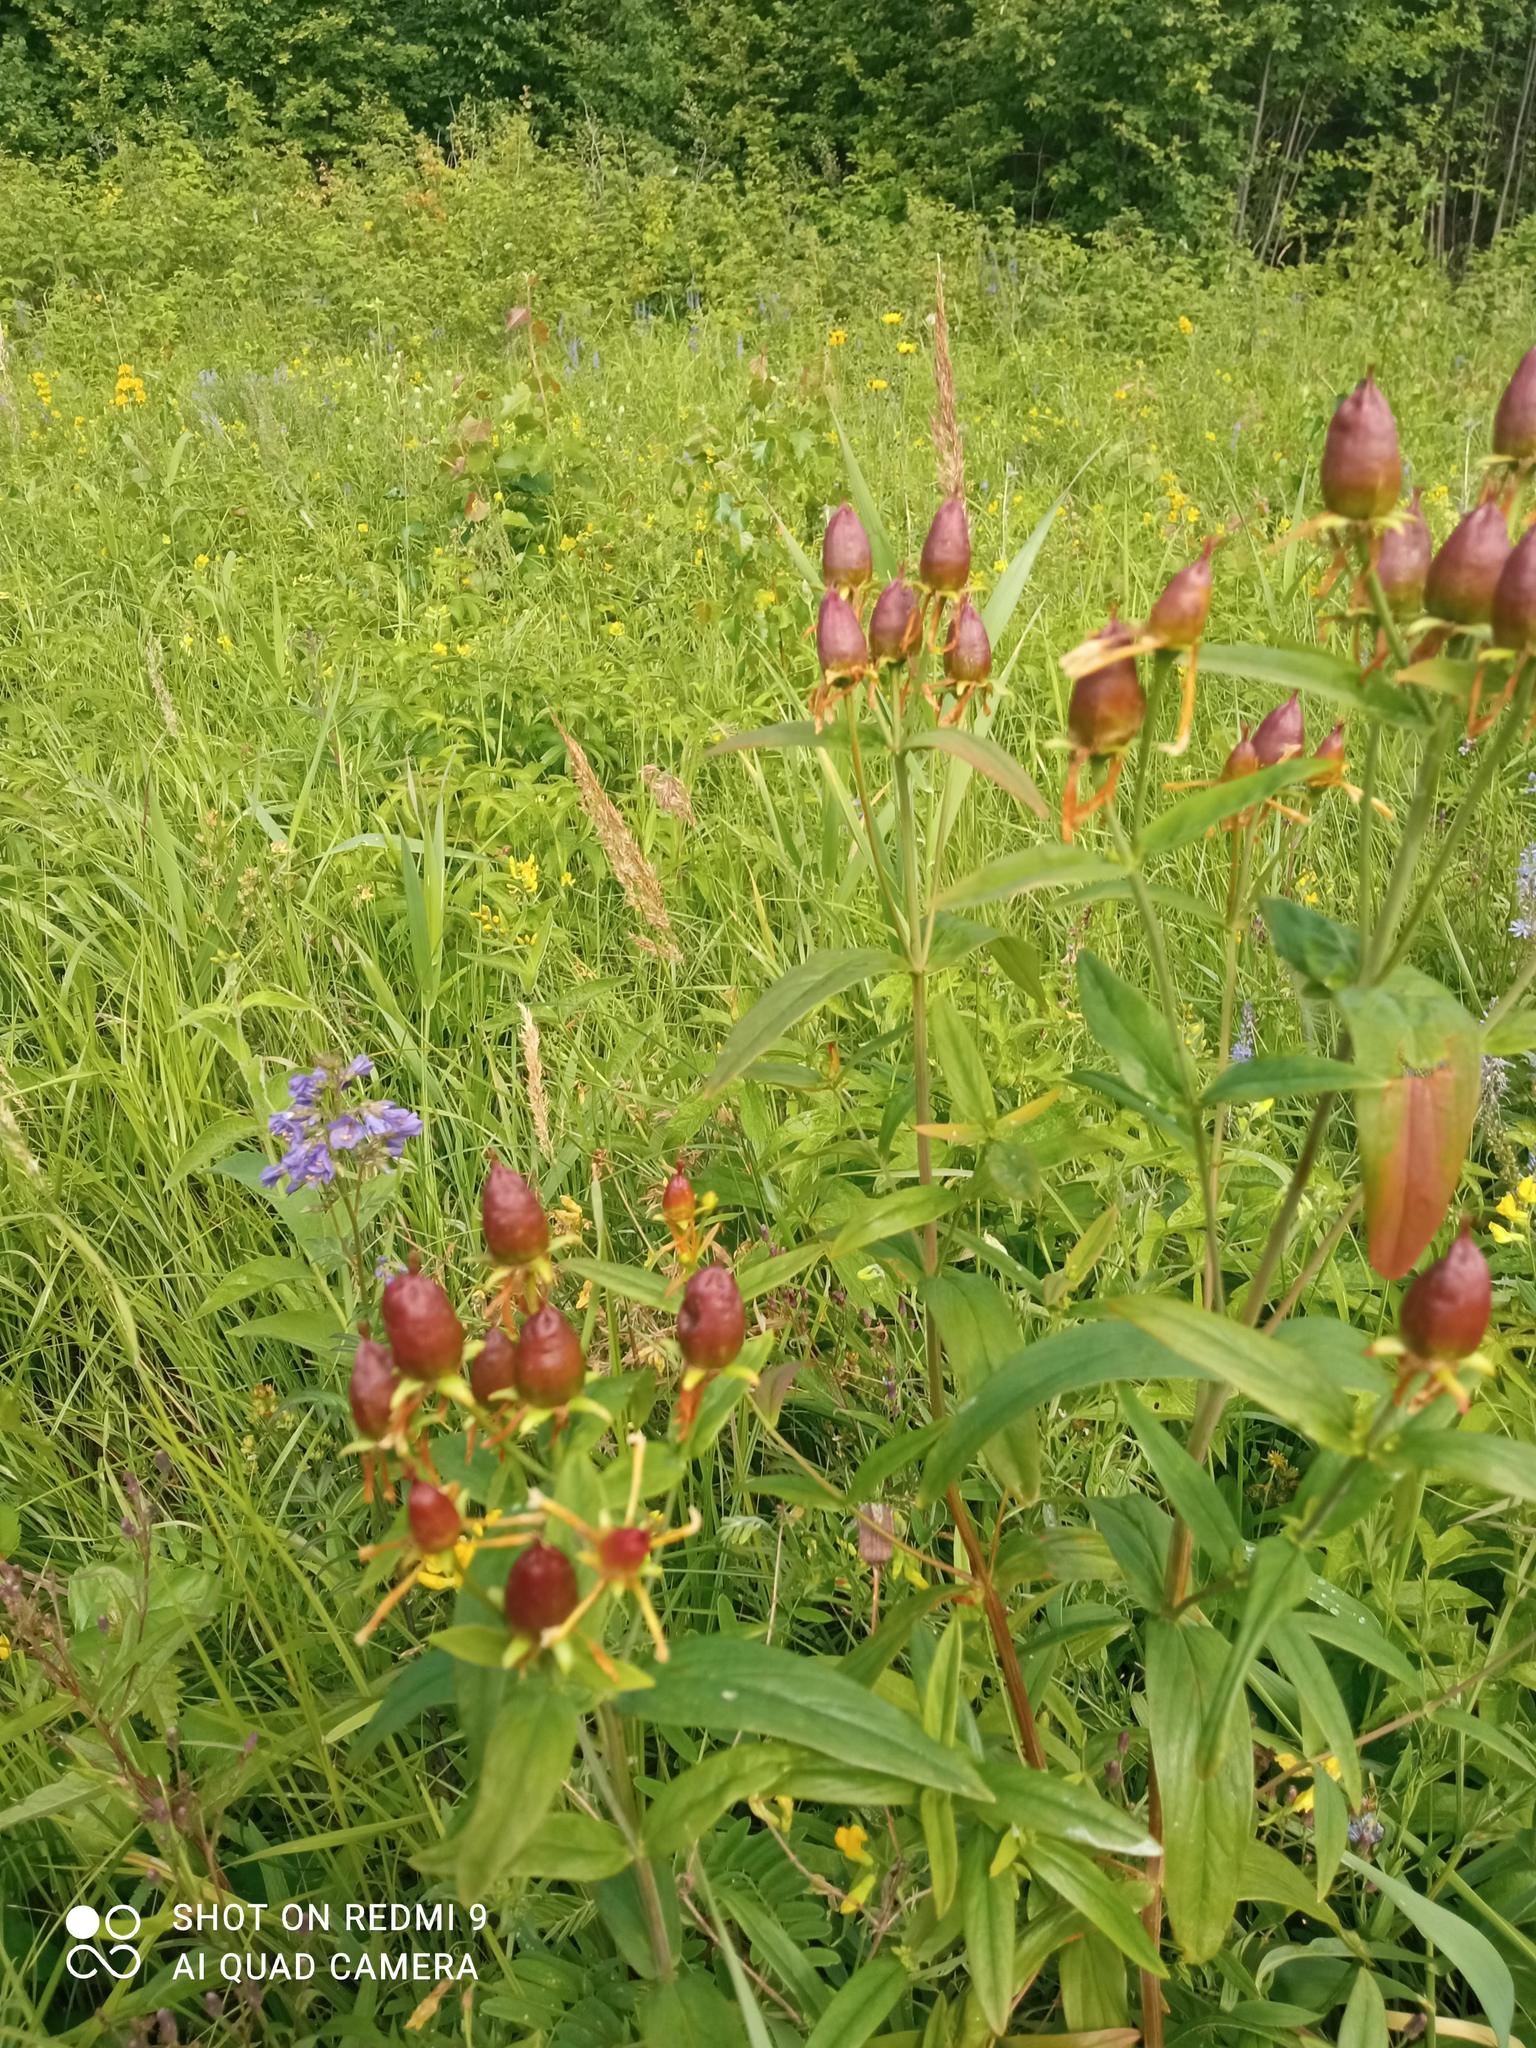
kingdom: Plantae
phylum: Tracheophyta
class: Magnoliopsida
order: Malpighiales
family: Hypericaceae
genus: Hypericum
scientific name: Hypericum ascyron
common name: Giant st. john's-wort
